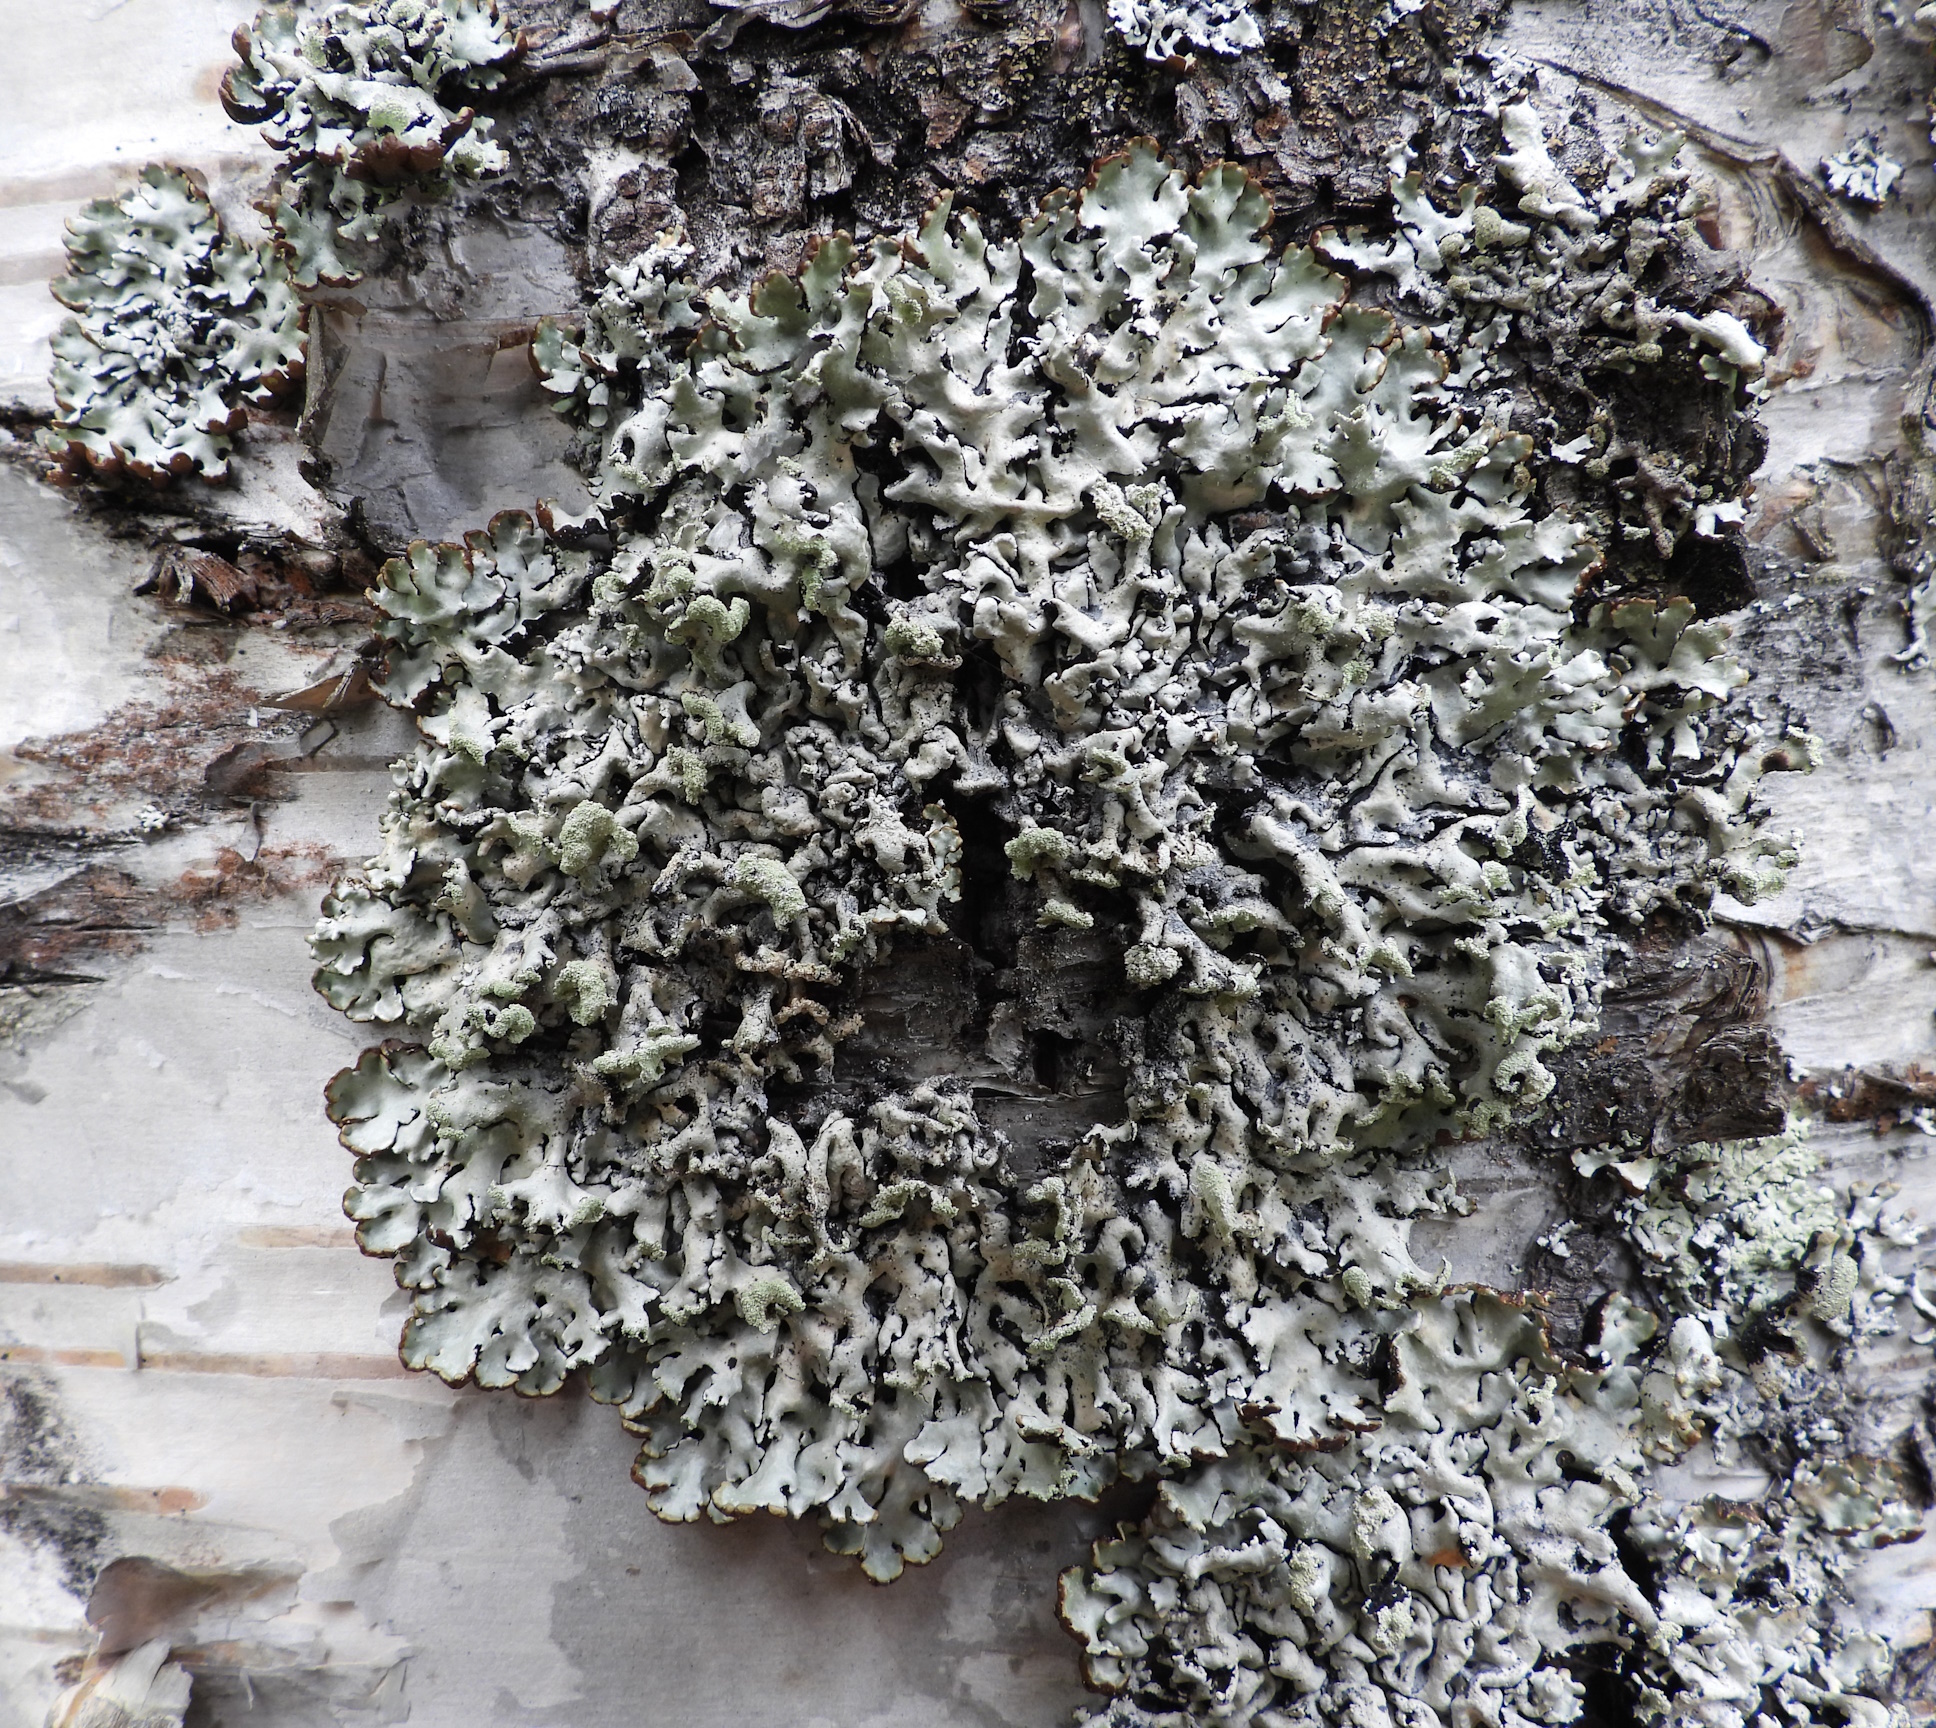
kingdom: Fungi
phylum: Ascomycota
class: Lecanoromycetes
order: Lecanorales
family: Parmeliaceae
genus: Hypogymnia
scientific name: Hypogymnia physodes
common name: Dark crottle
